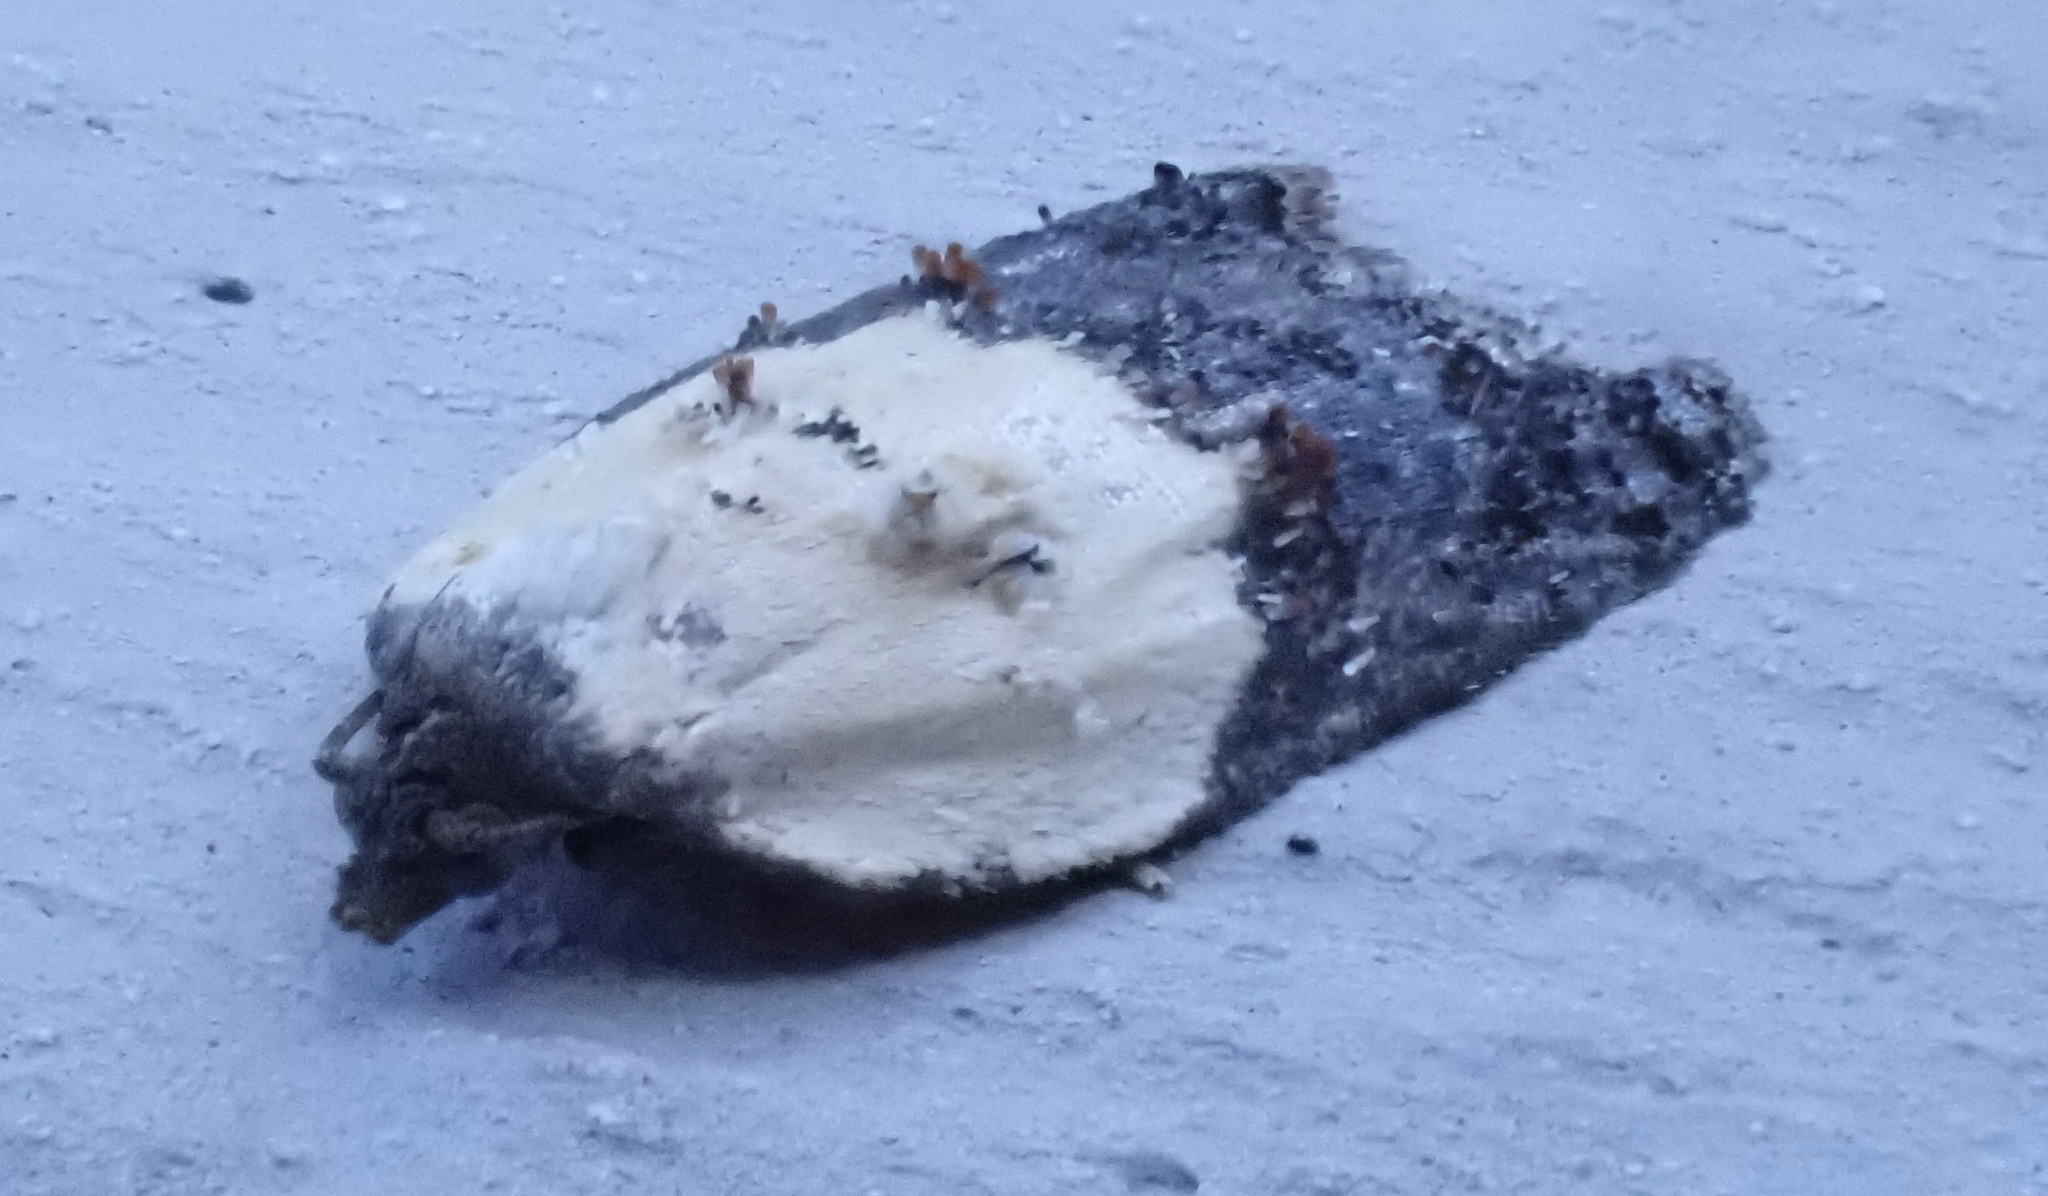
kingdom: Animalia
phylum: Arthropoda
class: Insecta
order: Lepidoptera
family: Tortricidae
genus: Acleris
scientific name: Acleris variegana
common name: Garden rose tortrix
